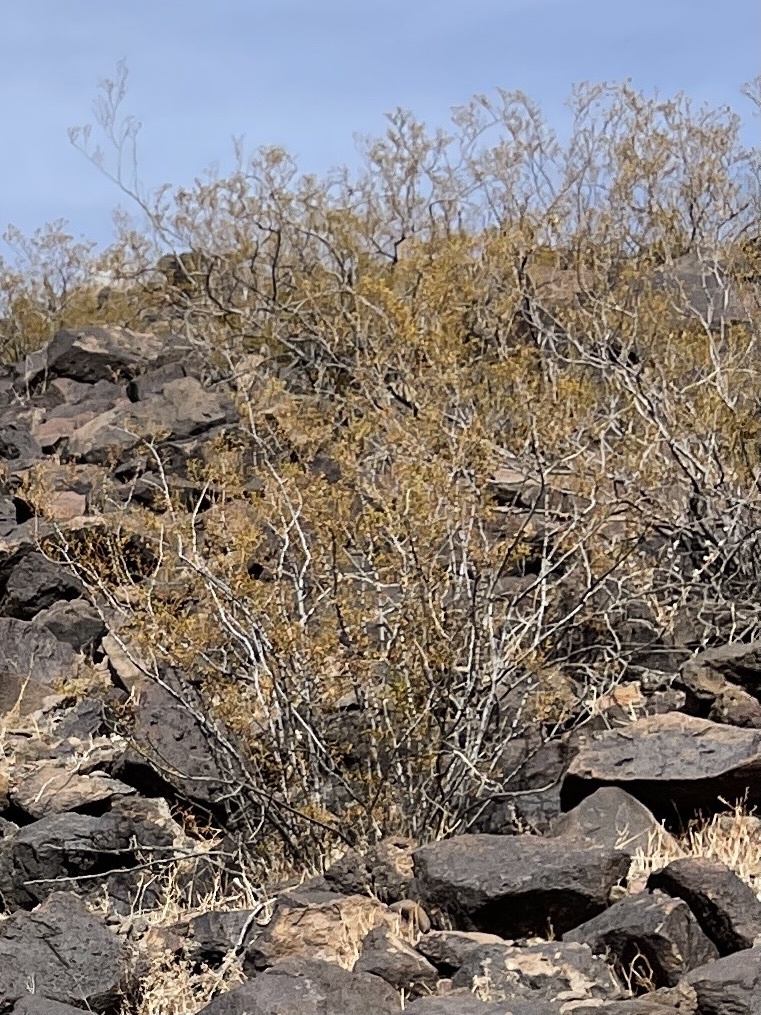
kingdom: Plantae
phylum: Tracheophyta
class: Magnoliopsida
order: Zygophyllales
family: Zygophyllaceae
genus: Larrea
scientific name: Larrea tridentata
